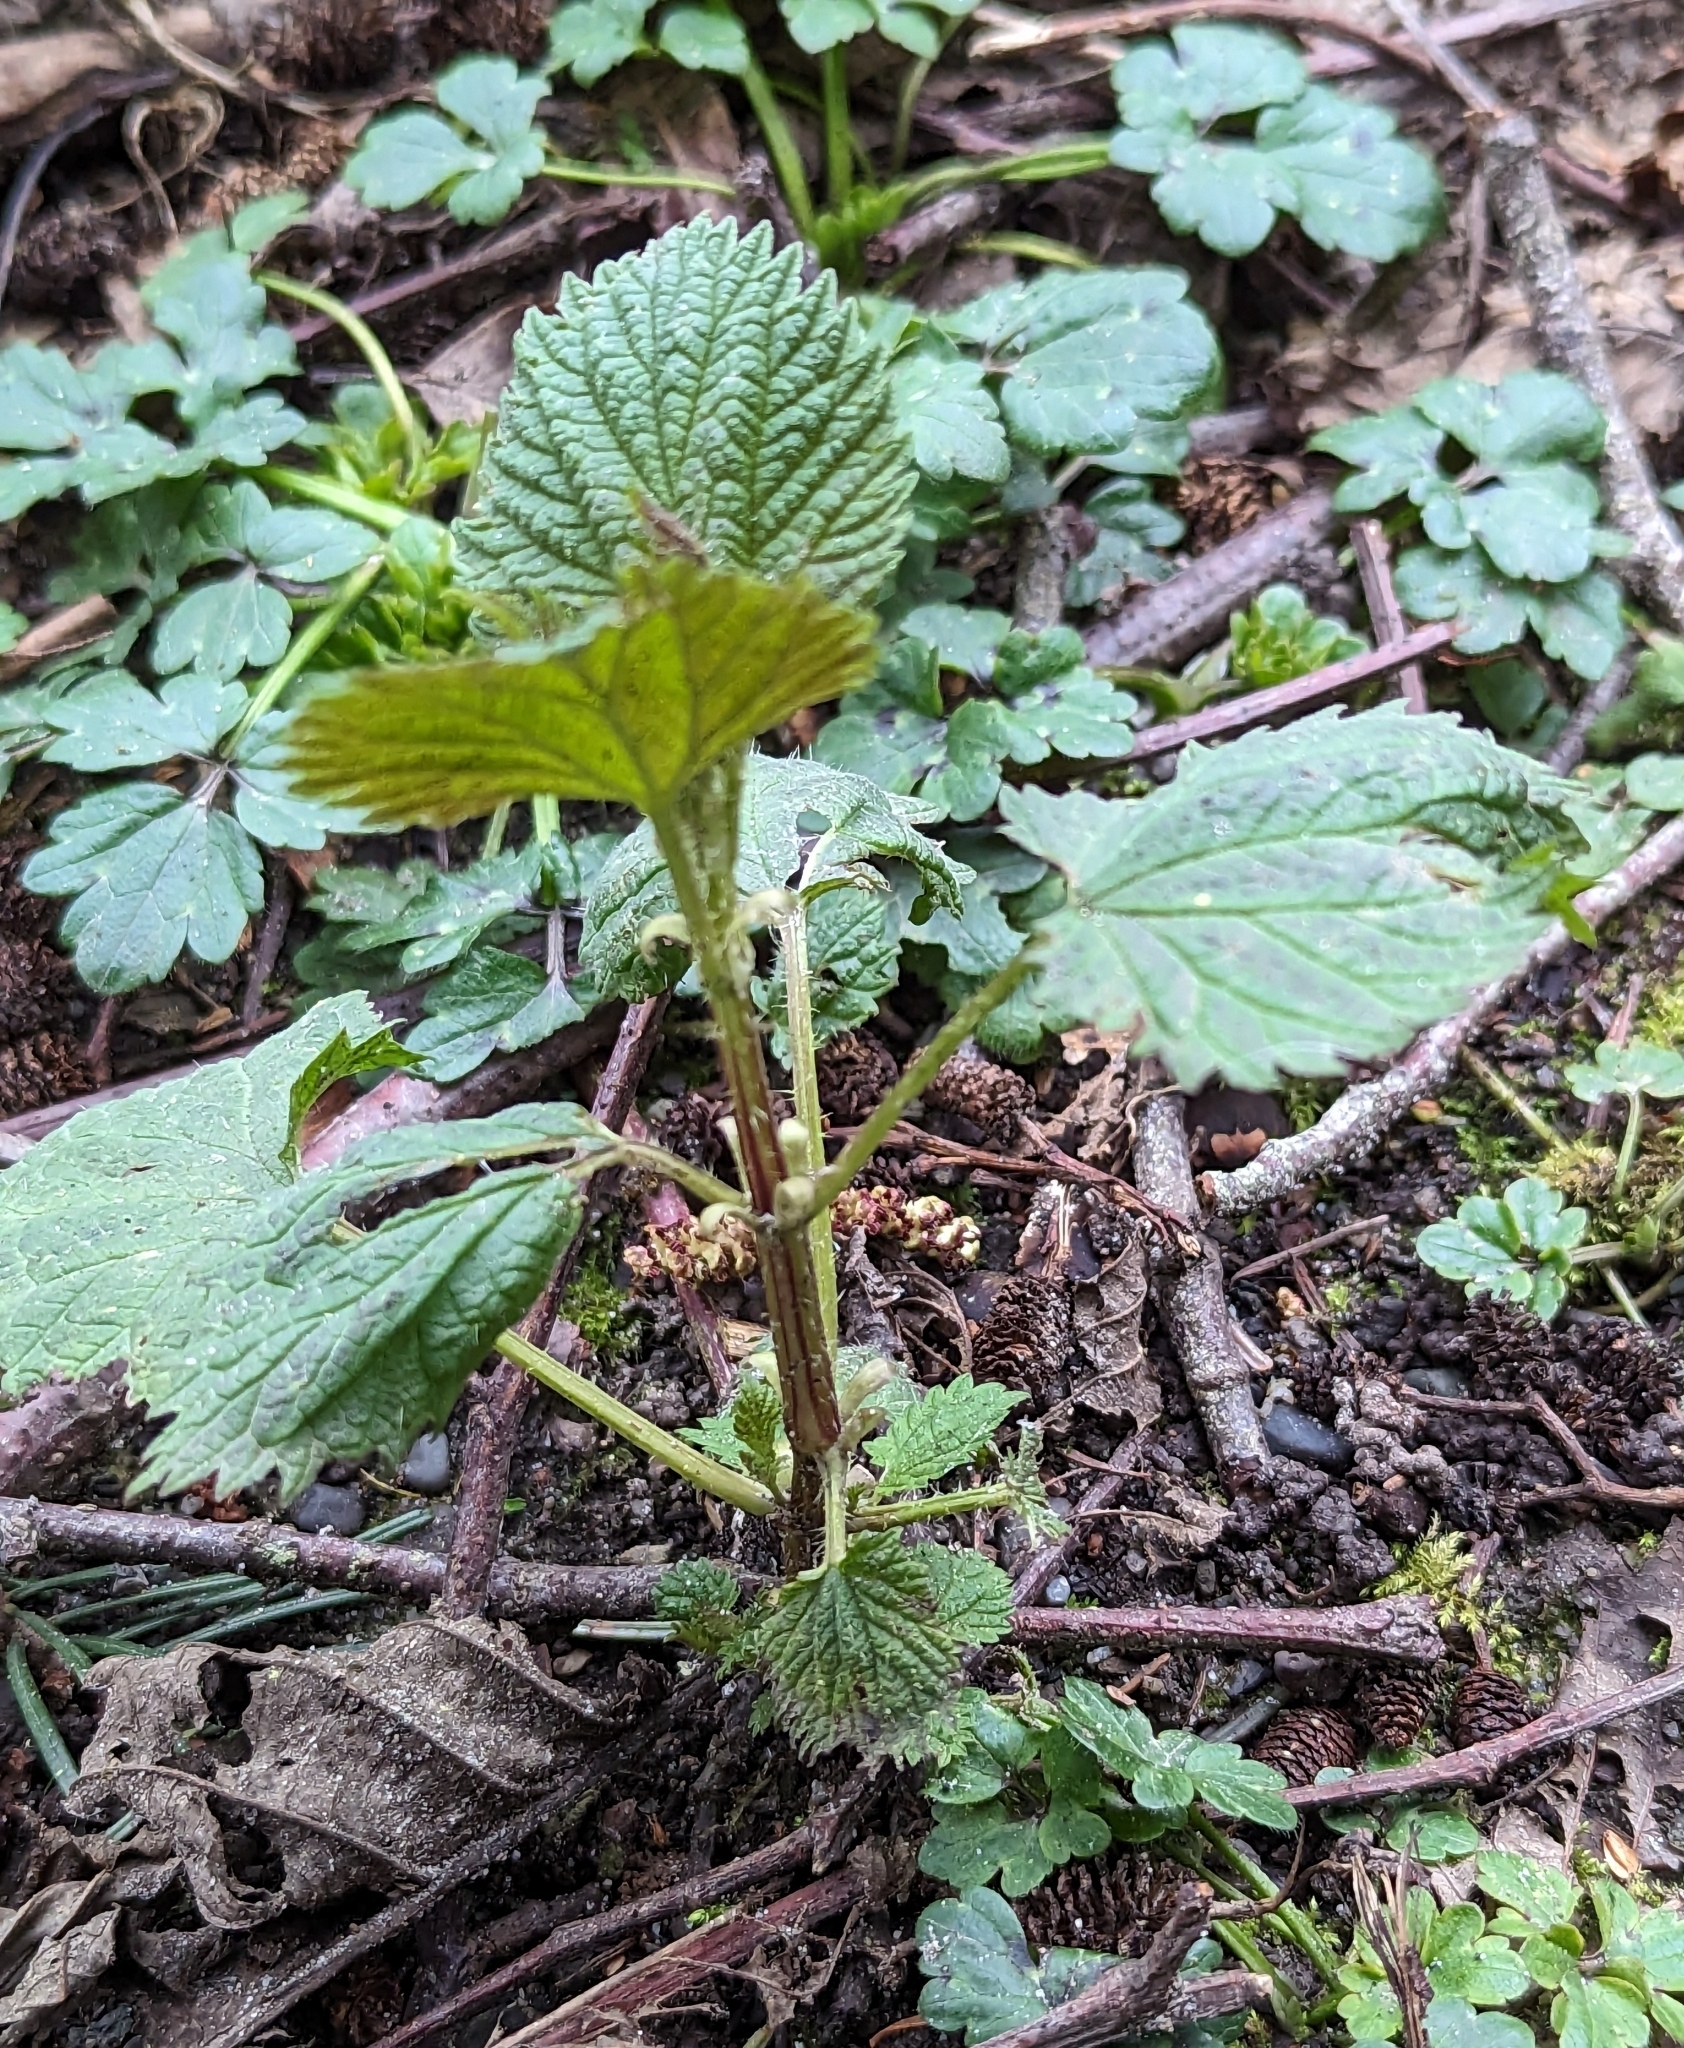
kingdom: Plantae
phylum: Tracheophyta
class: Magnoliopsida
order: Rosales
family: Urticaceae
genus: Urtica
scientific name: Urtica gracilis
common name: Slender stinging nettle
